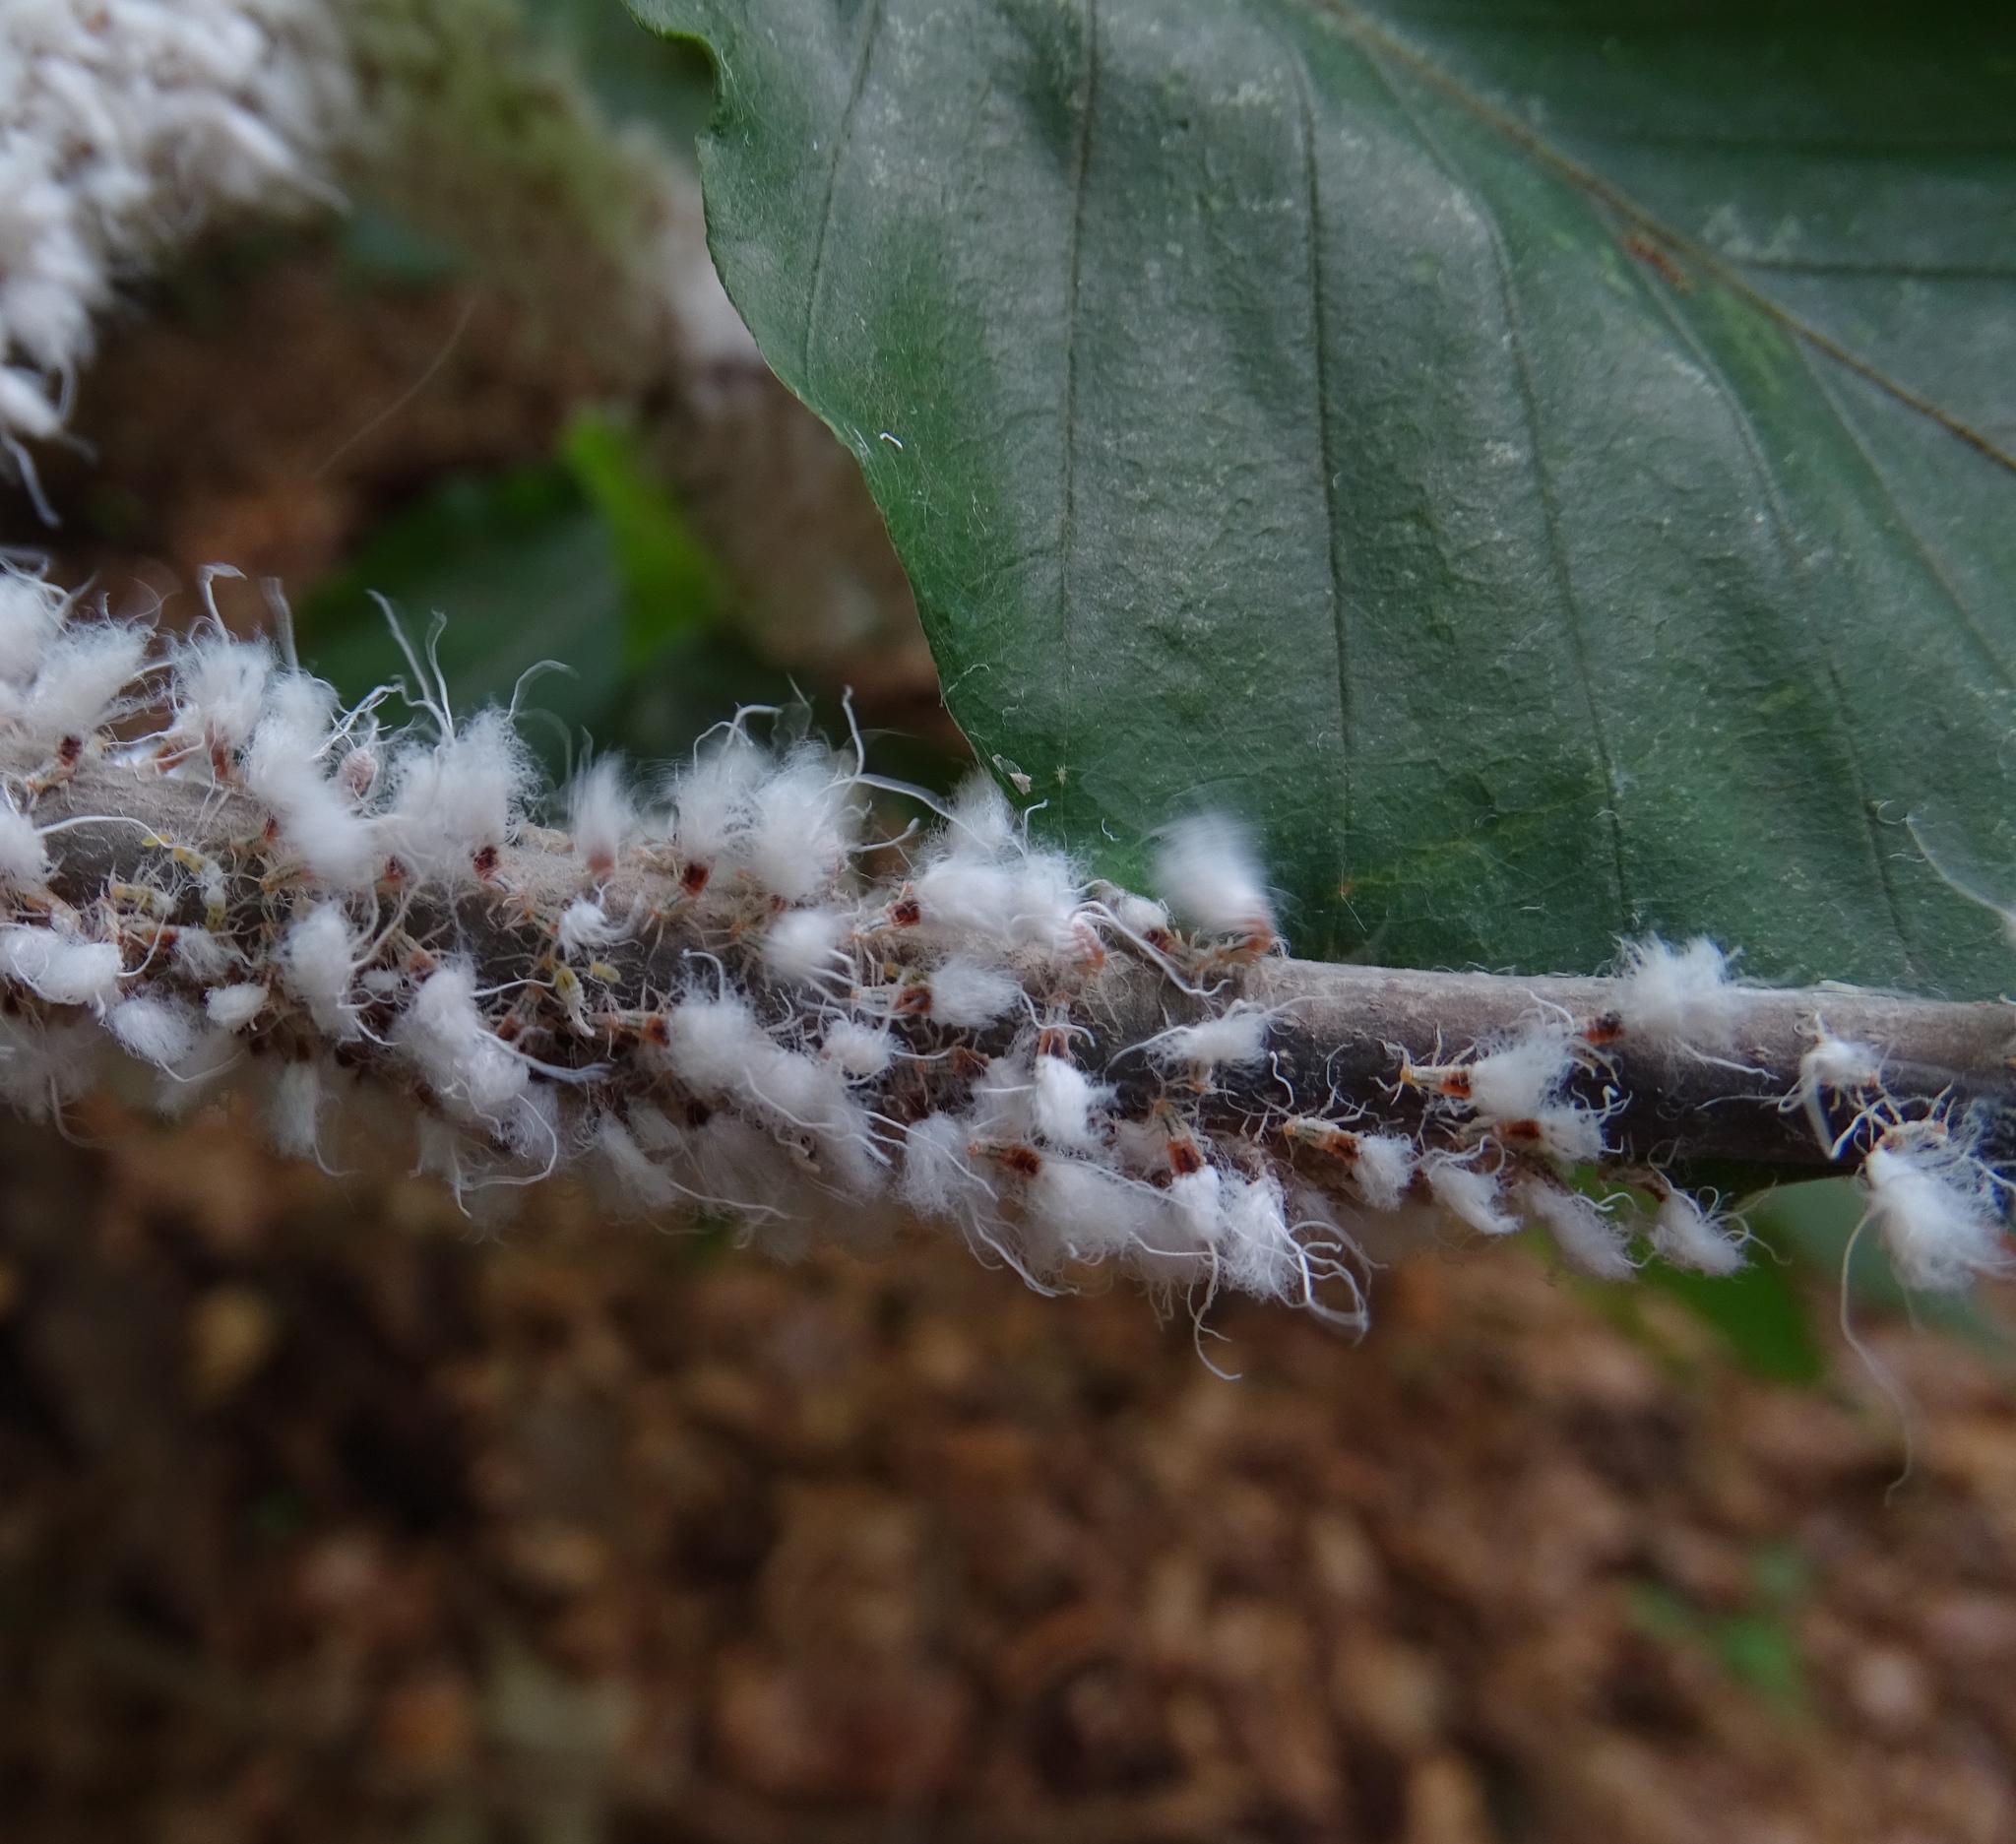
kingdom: Animalia
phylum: Arthropoda
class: Insecta
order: Hemiptera
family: Aphididae
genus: Grylloprociphilus
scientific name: Grylloprociphilus imbricator
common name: Beech blight aphid
